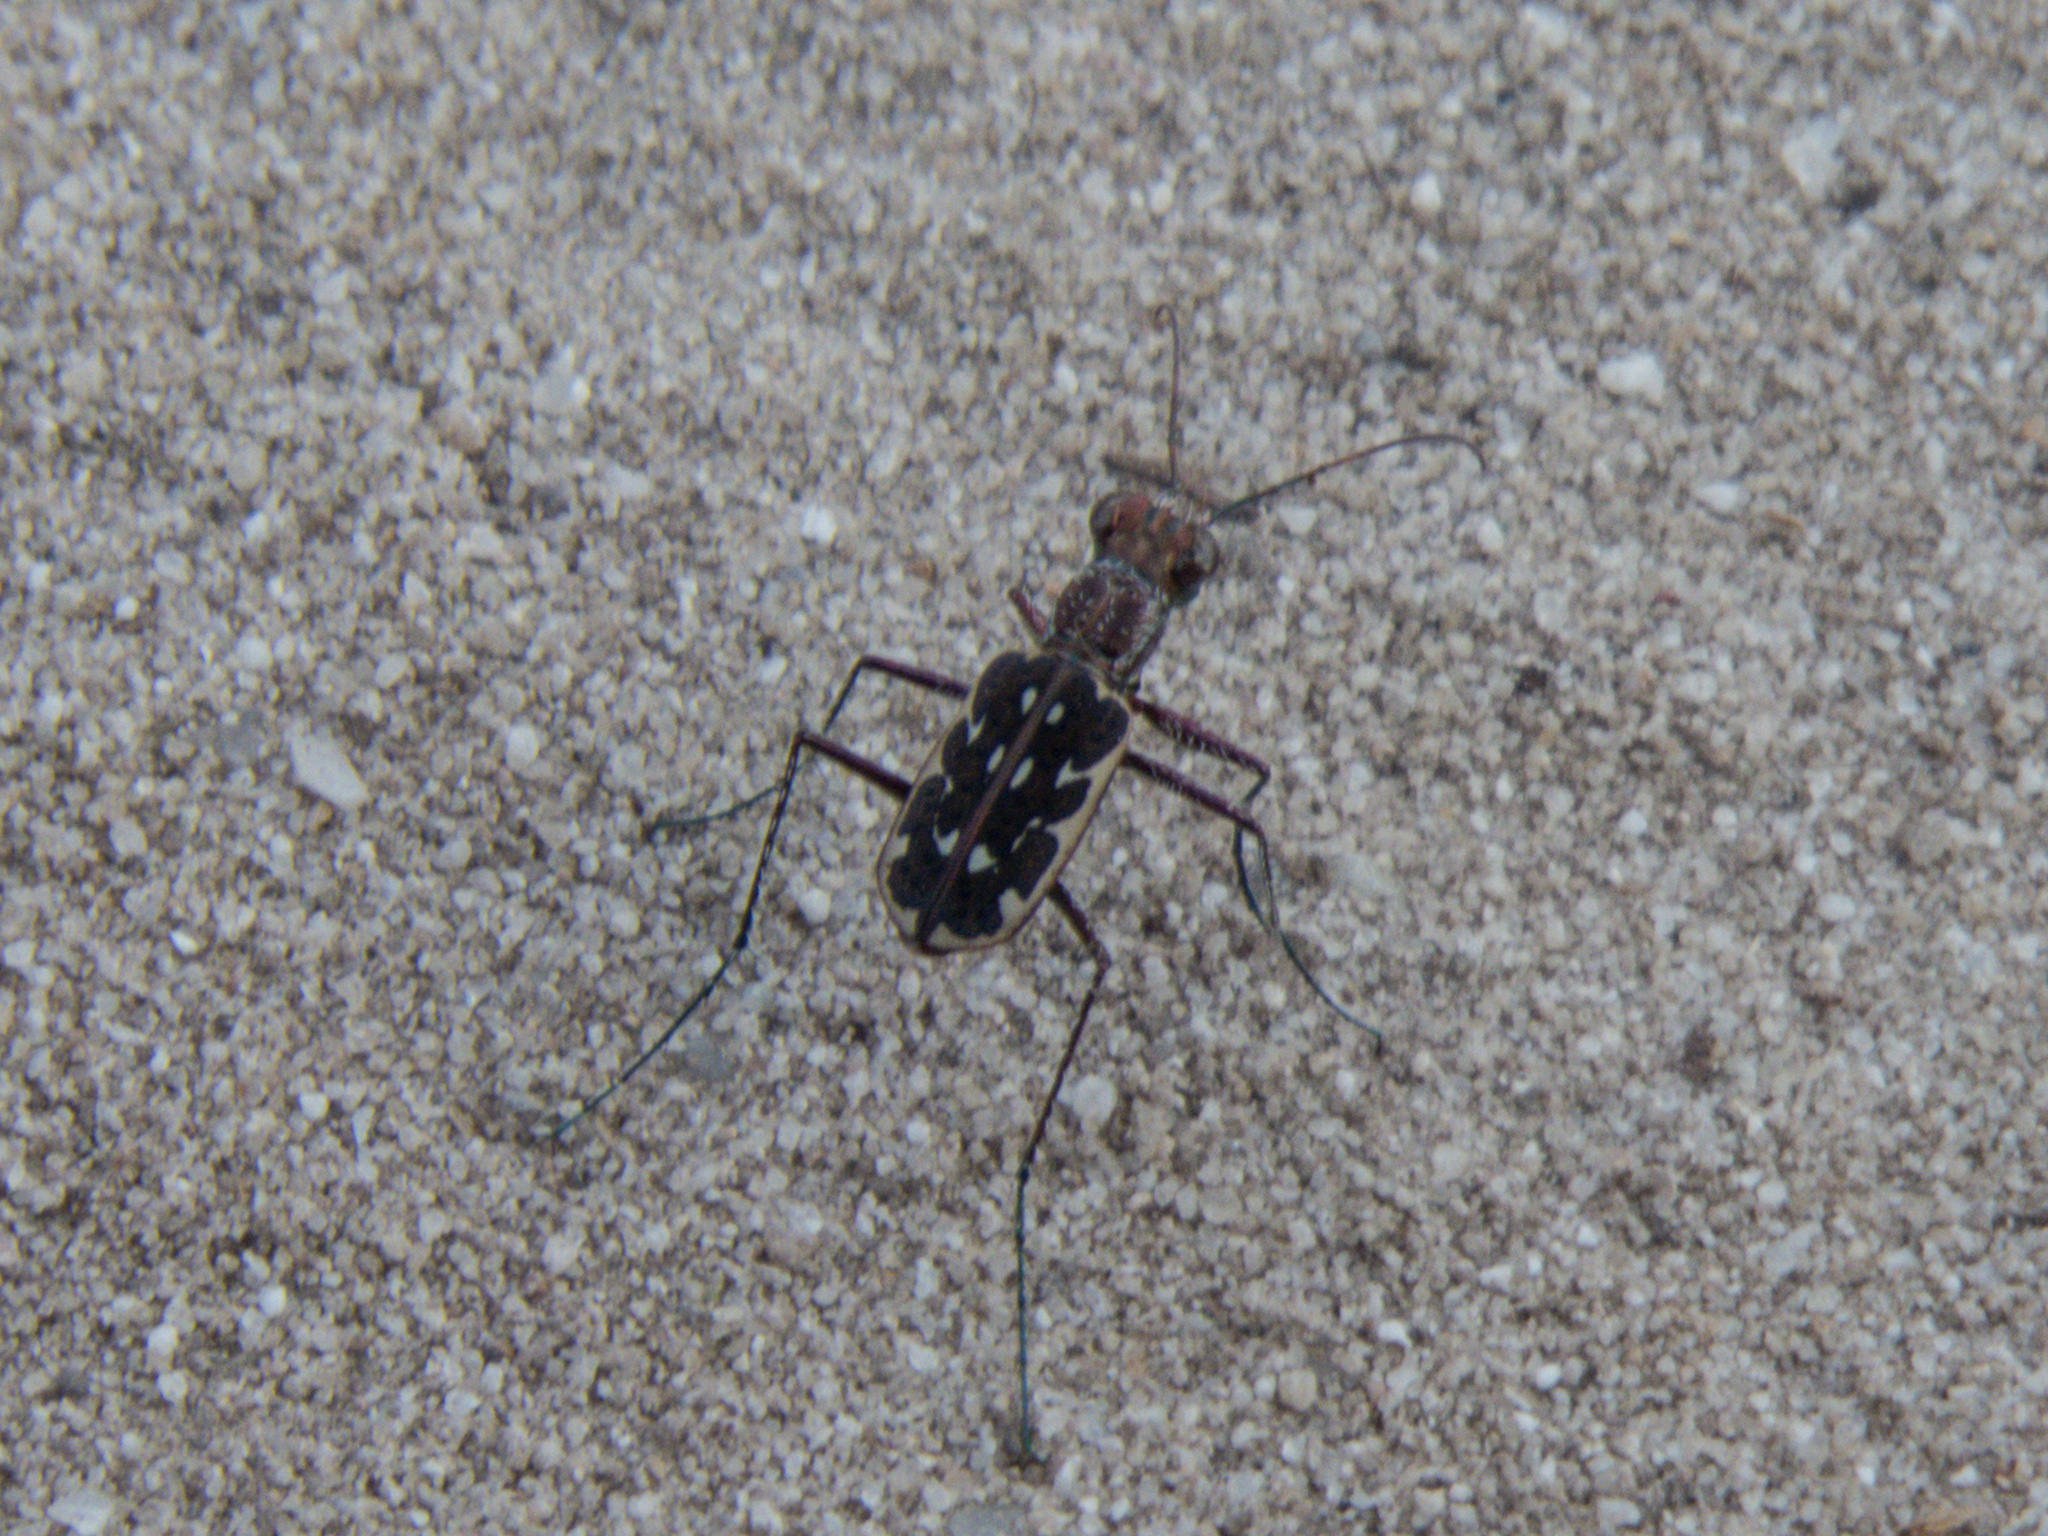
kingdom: Animalia
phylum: Arthropoda
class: Insecta
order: Coleoptera
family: Carabidae
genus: Lophyra
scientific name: Lophyra fuliginosa
